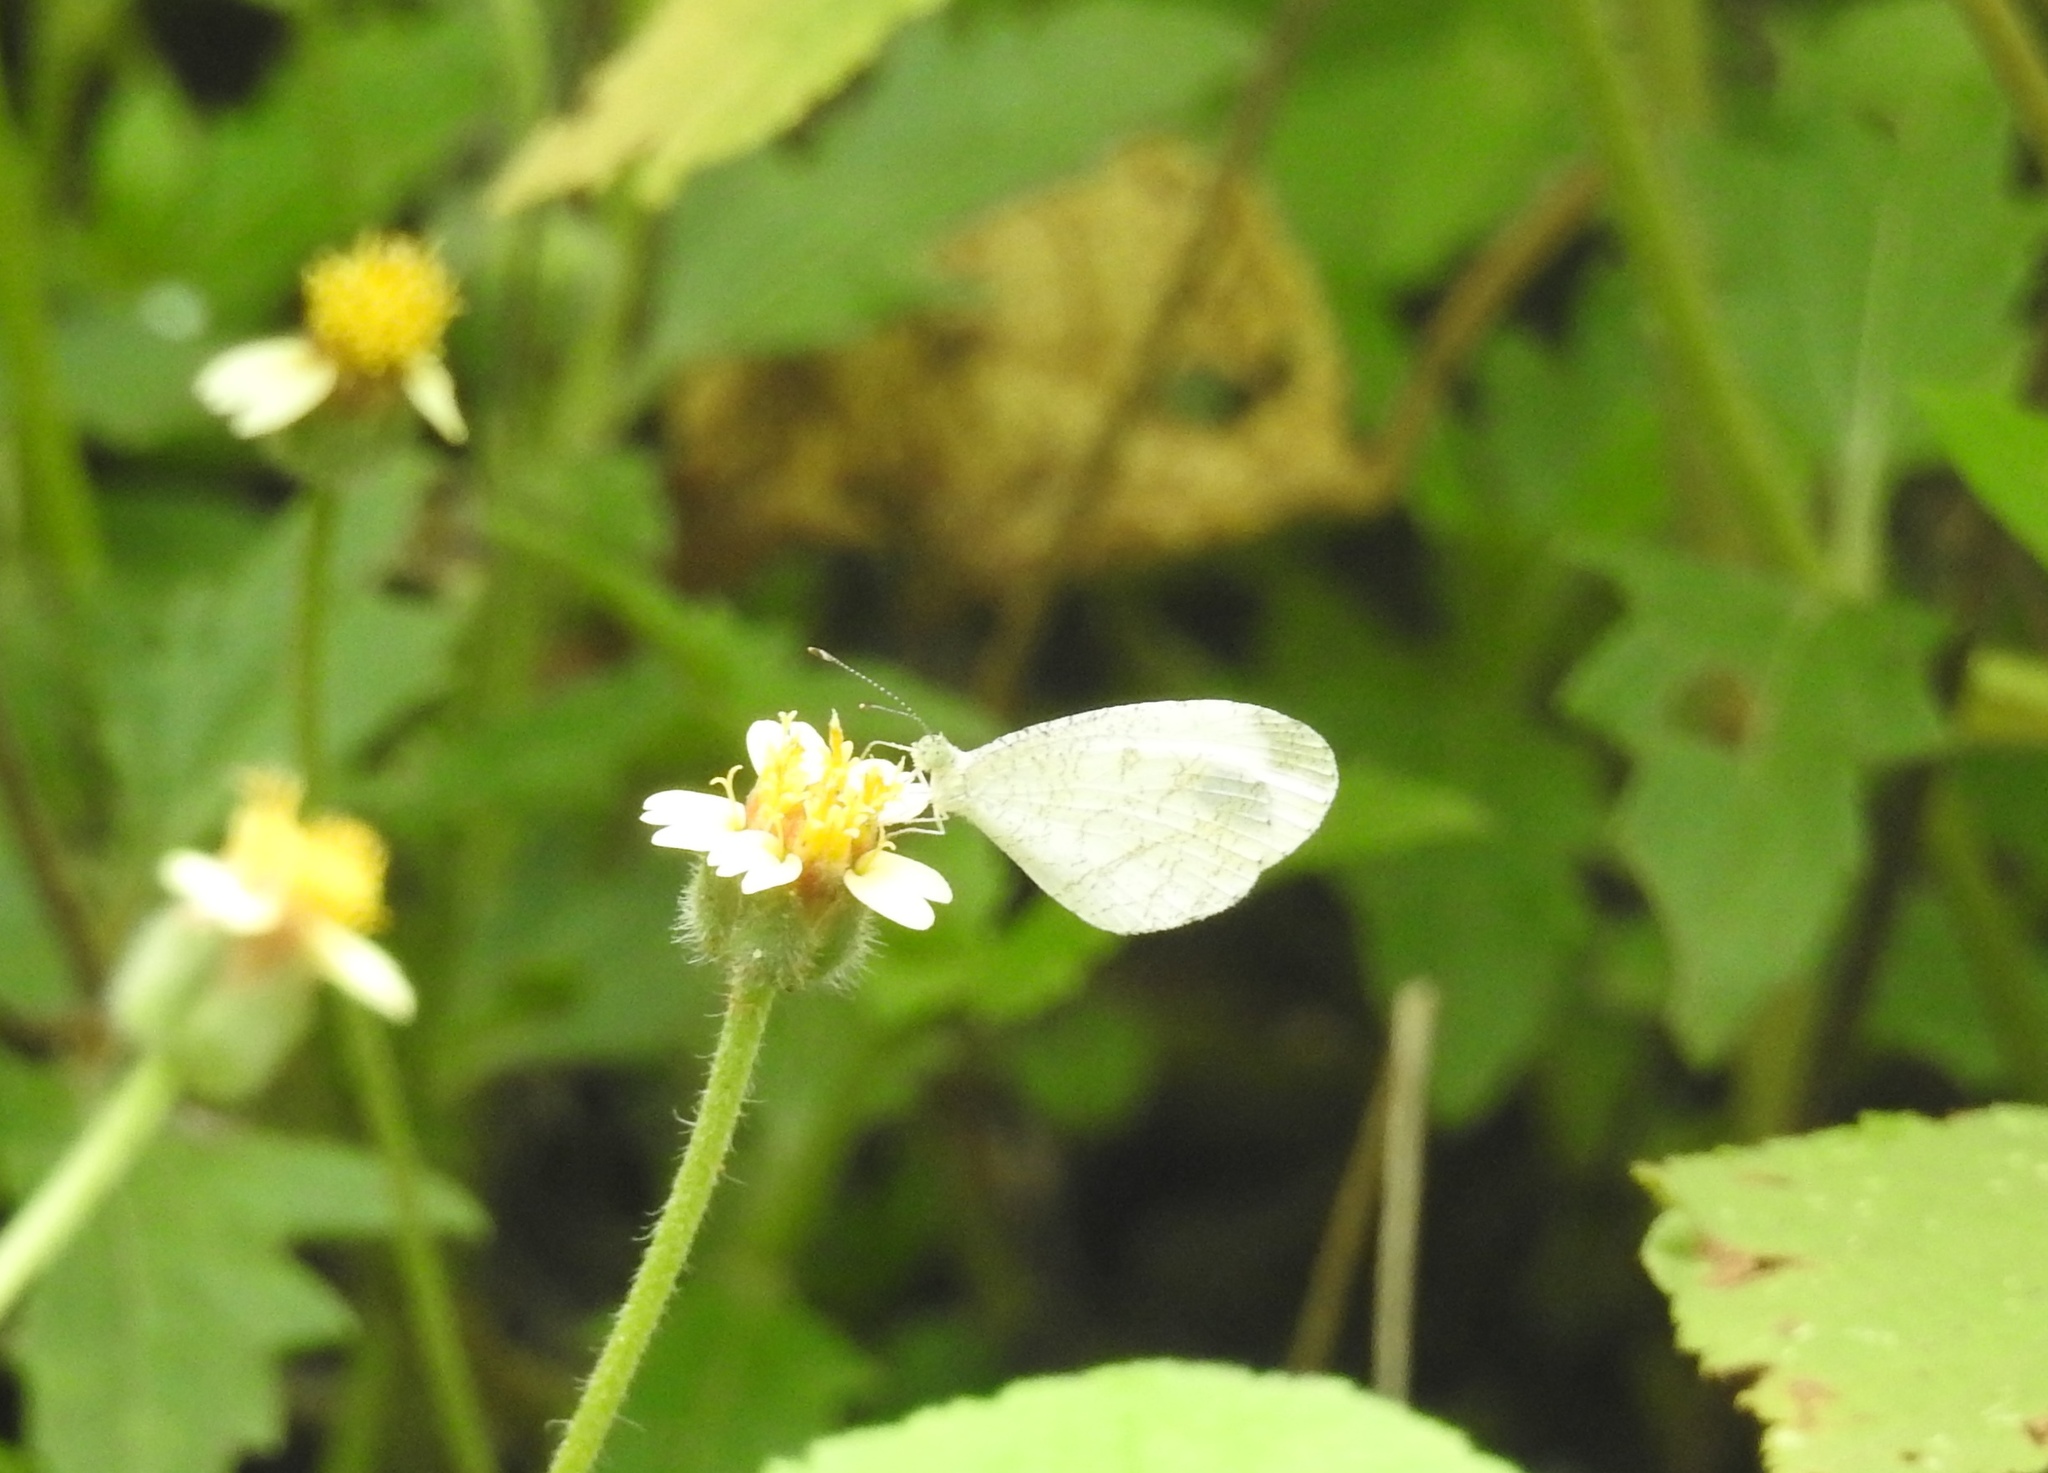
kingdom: Animalia
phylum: Arthropoda
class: Insecta
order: Lepidoptera
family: Pieridae
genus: Leptosia
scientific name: Leptosia nina
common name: Psyche
